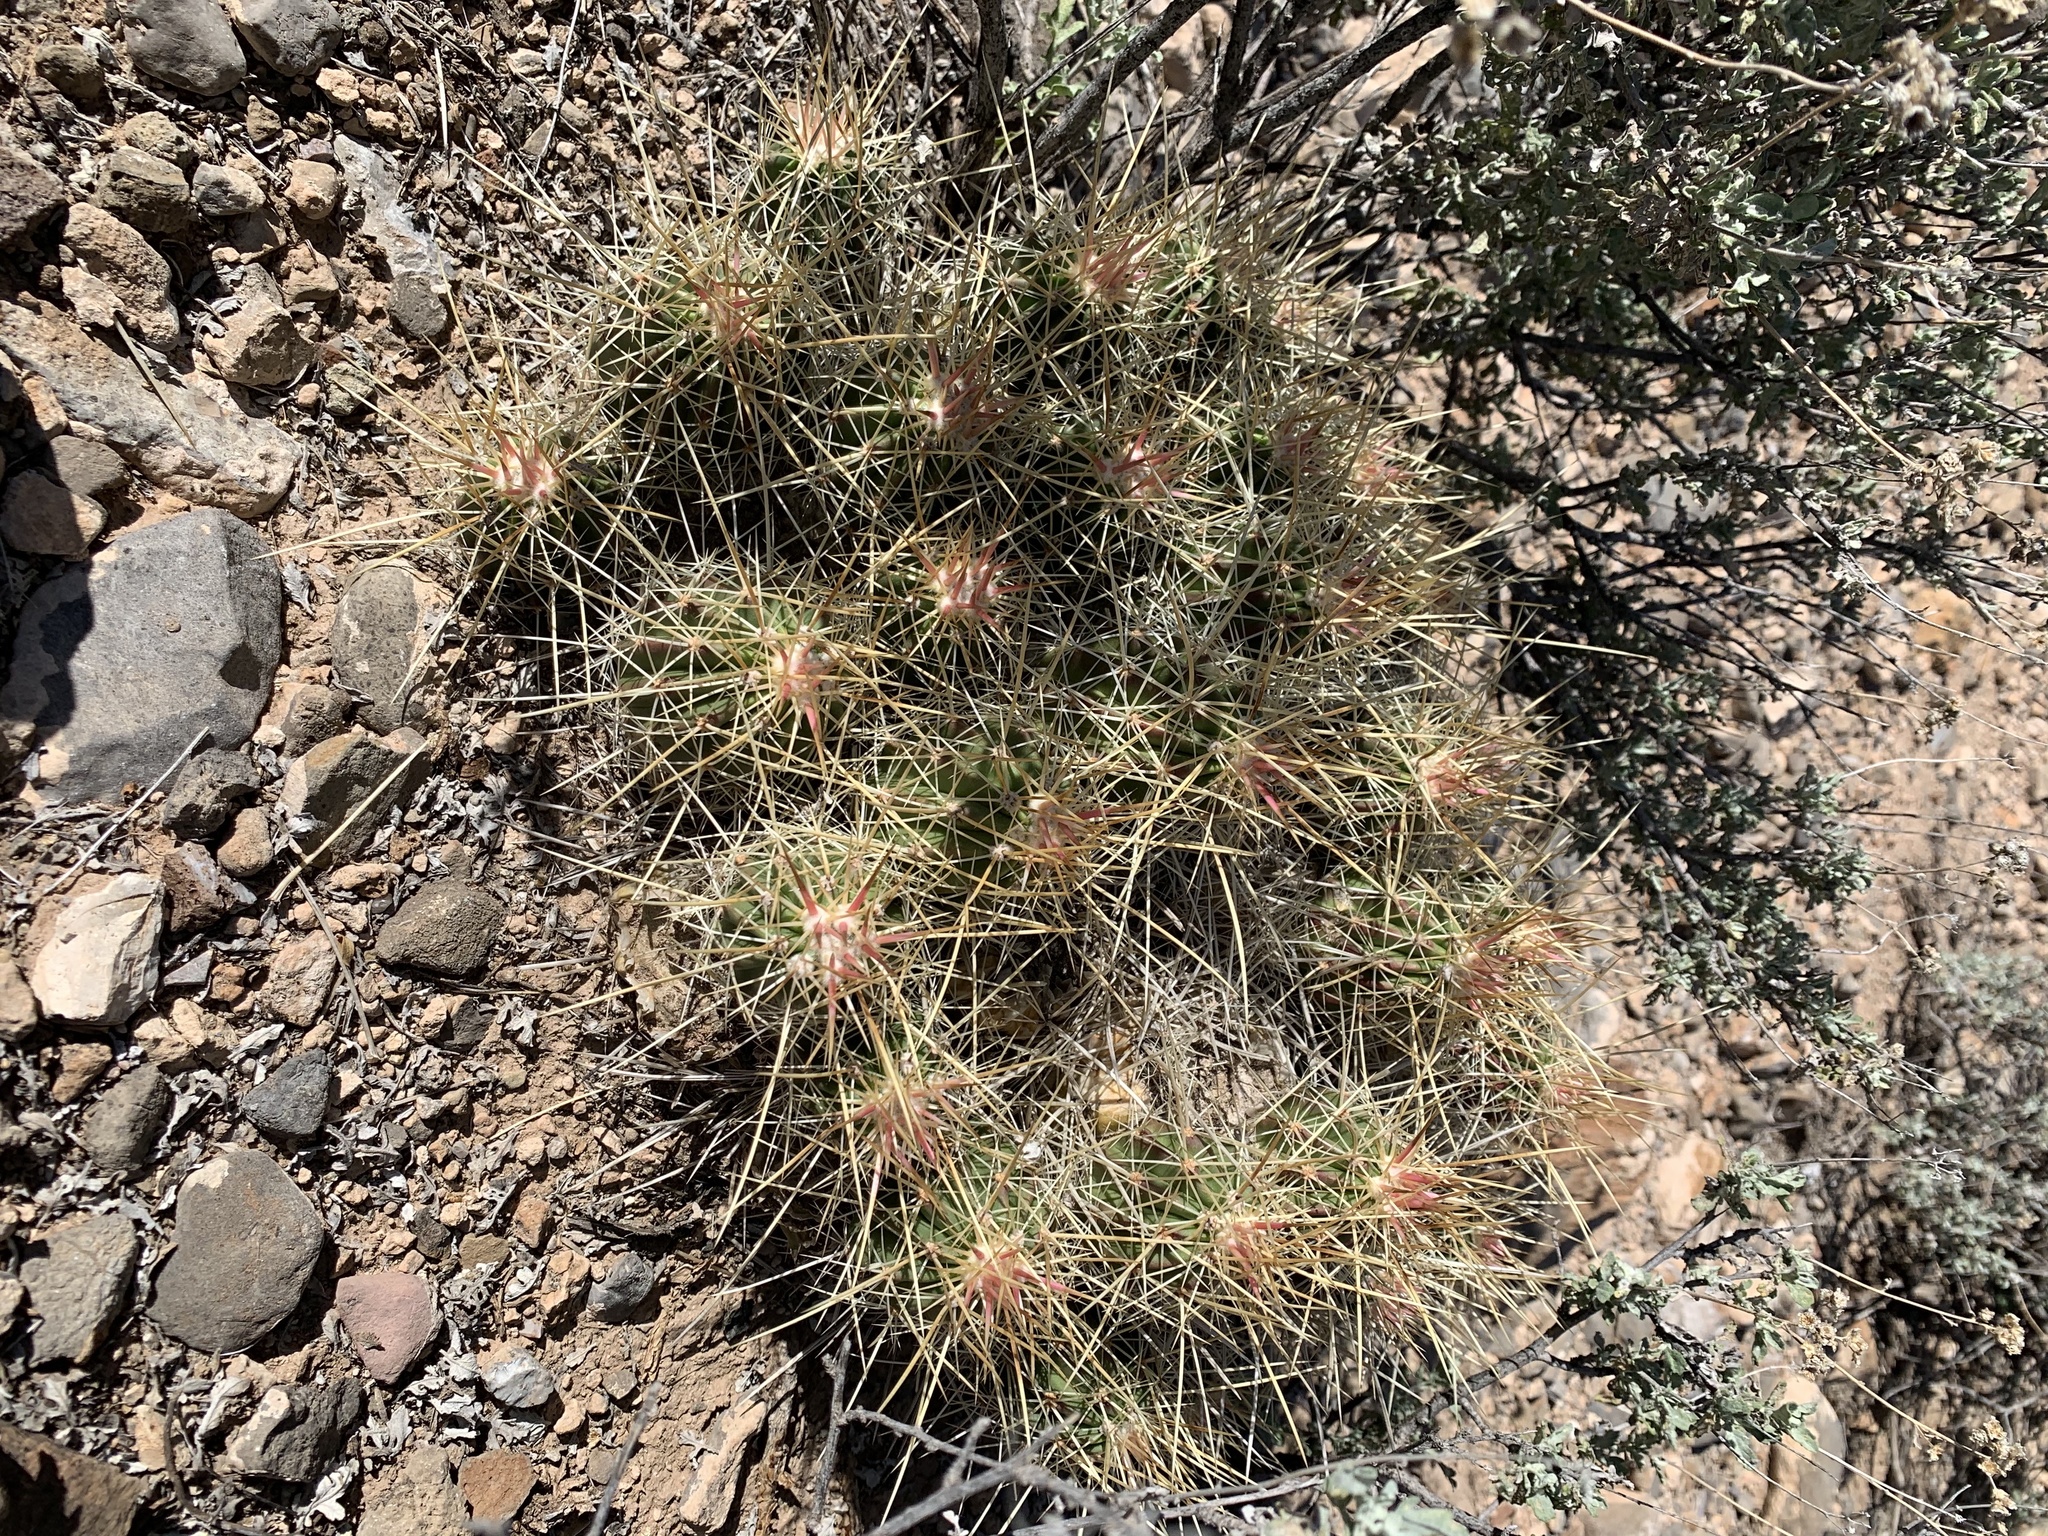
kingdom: Plantae
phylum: Tracheophyta
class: Magnoliopsida
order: Caryophyllales
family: Cactaceae
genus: Echinocereus
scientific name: Echinocereus stramineus
